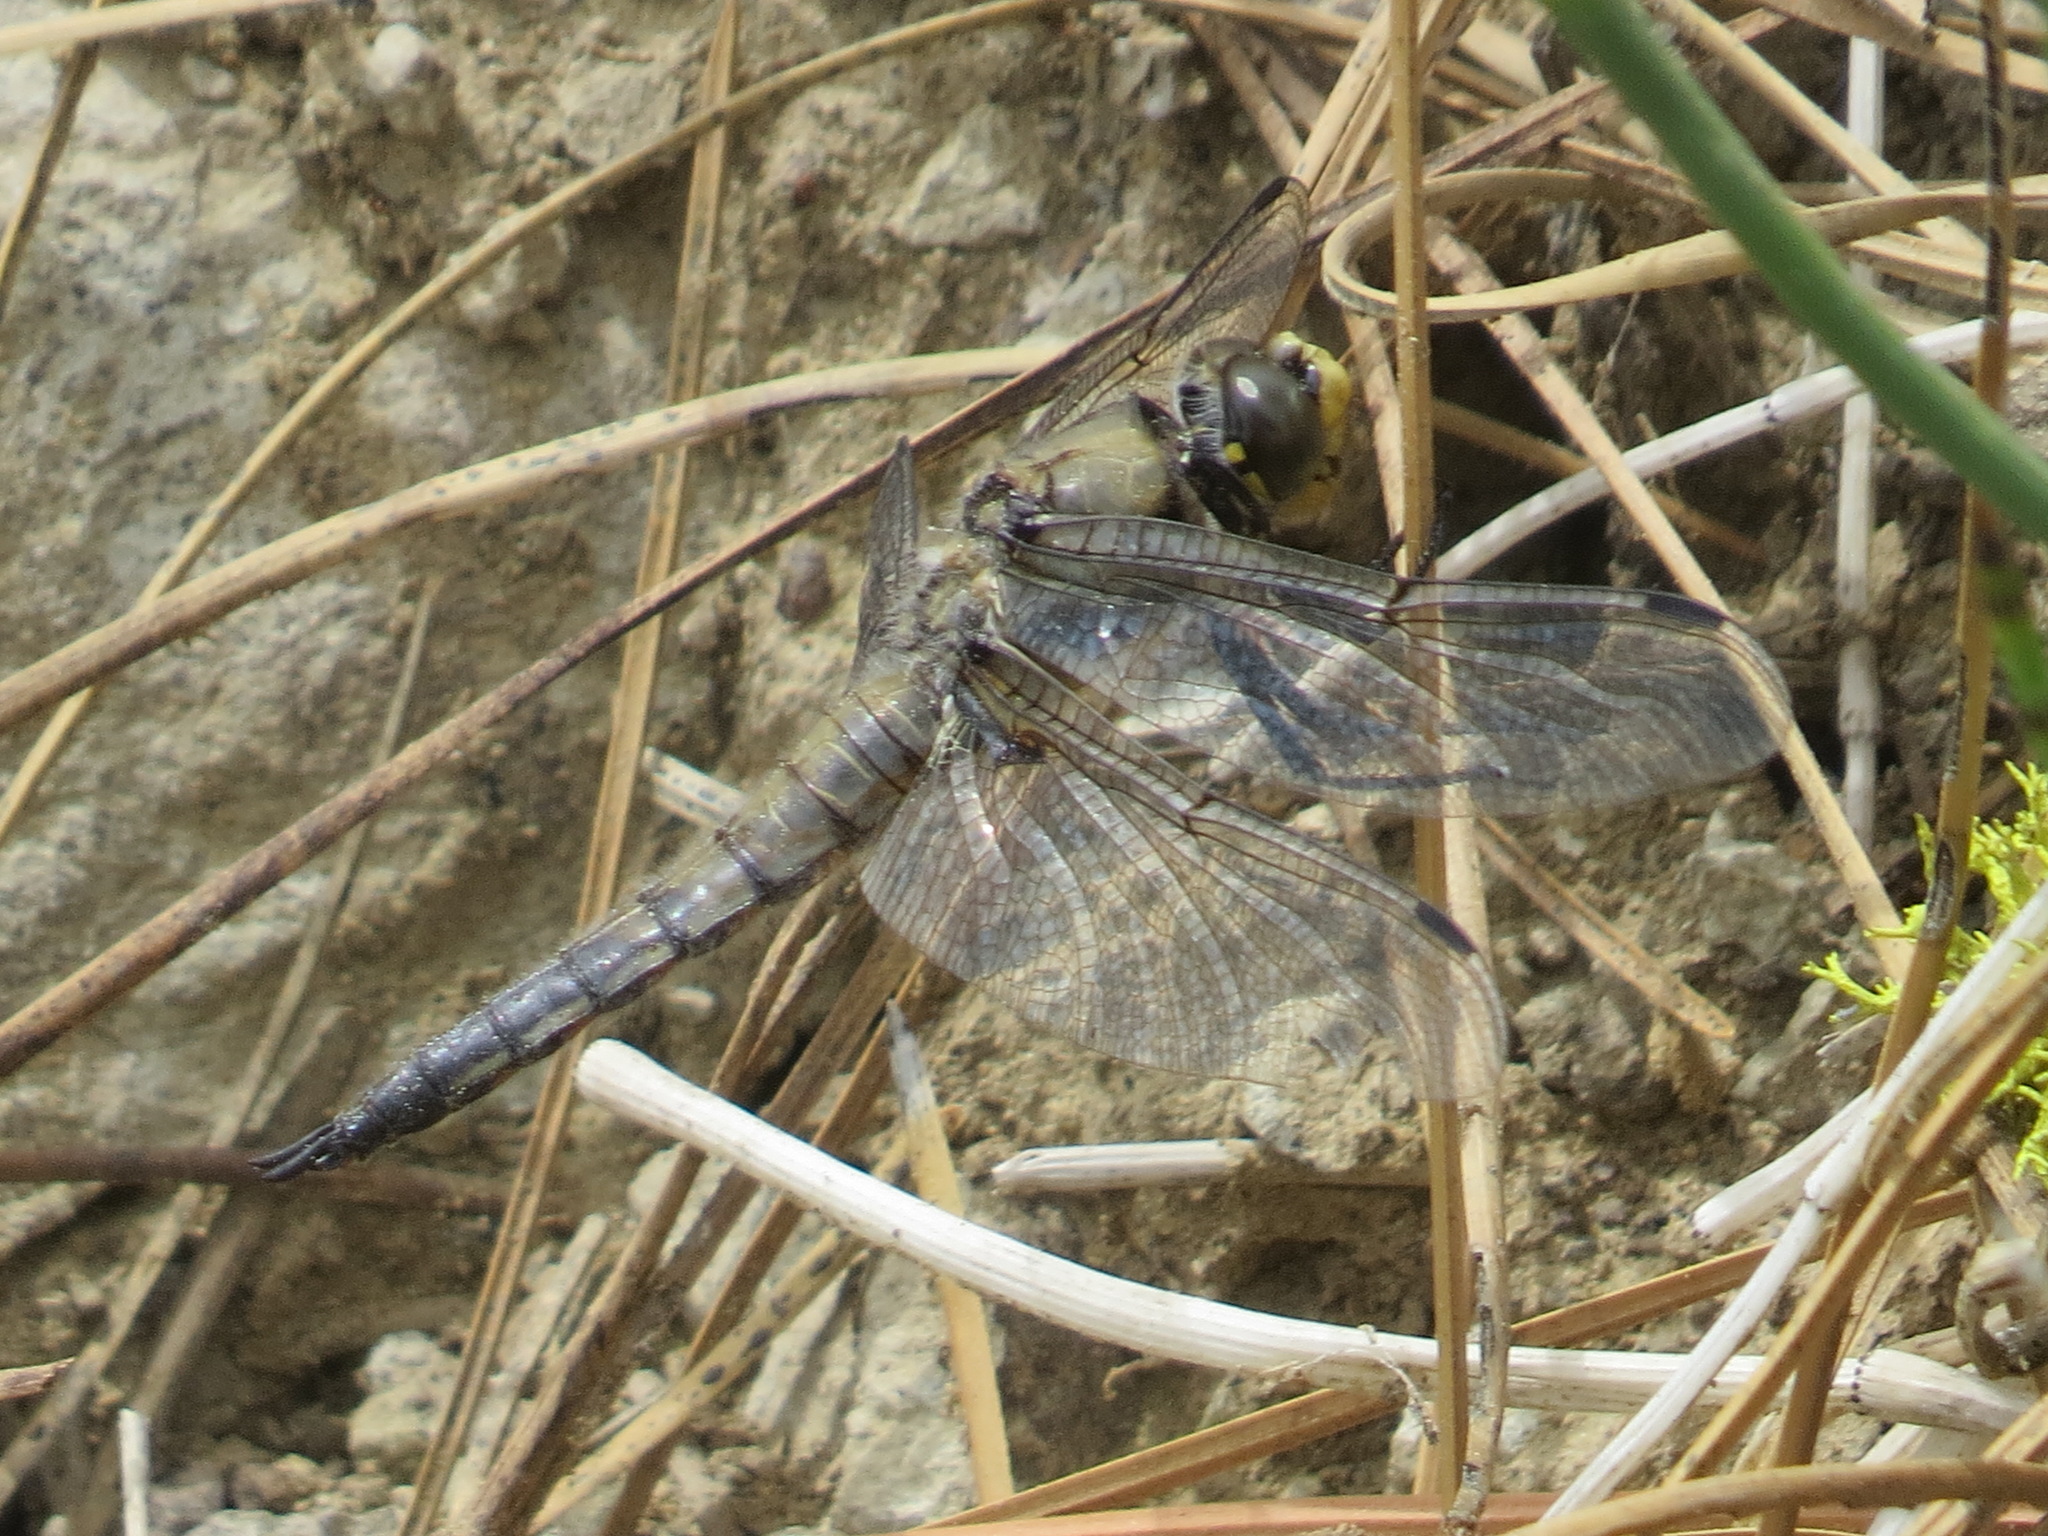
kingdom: Animalia
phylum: Arthropoda
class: Insecta
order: Odonata
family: Libellulidae
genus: Libellula
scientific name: Libellula quadrimaculata
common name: Four-spotted chaser
